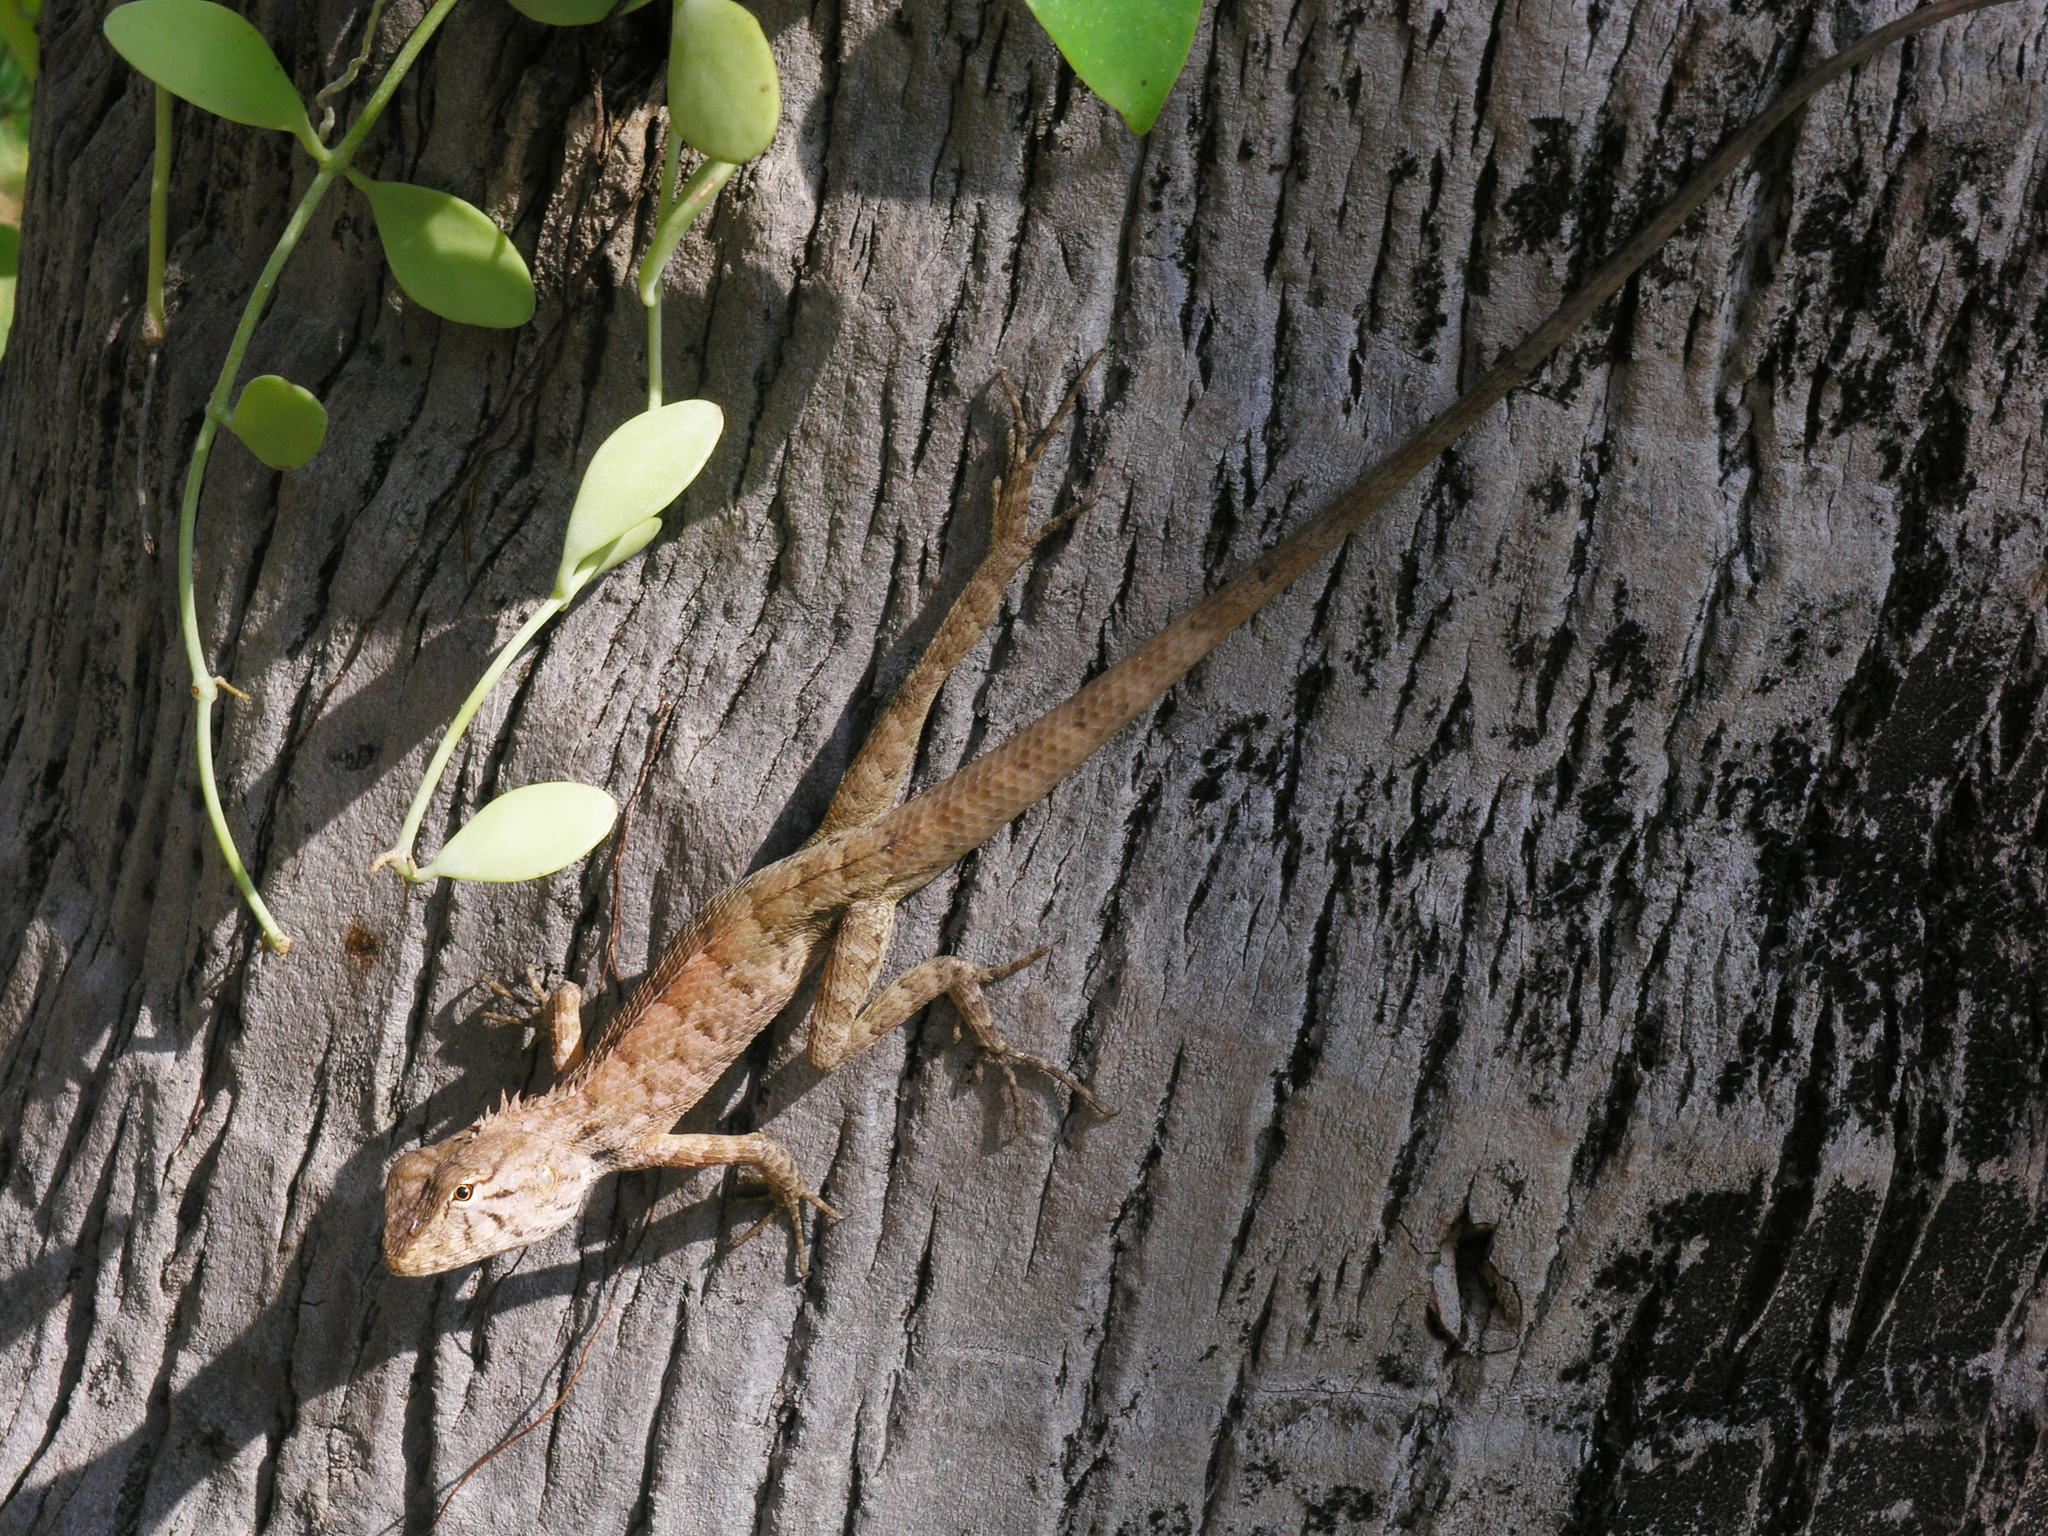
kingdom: Animalia
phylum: Chordata
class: Squamata
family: Agamidae
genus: Calotes
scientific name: Calotes versicolor
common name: Oriental garden lizard
